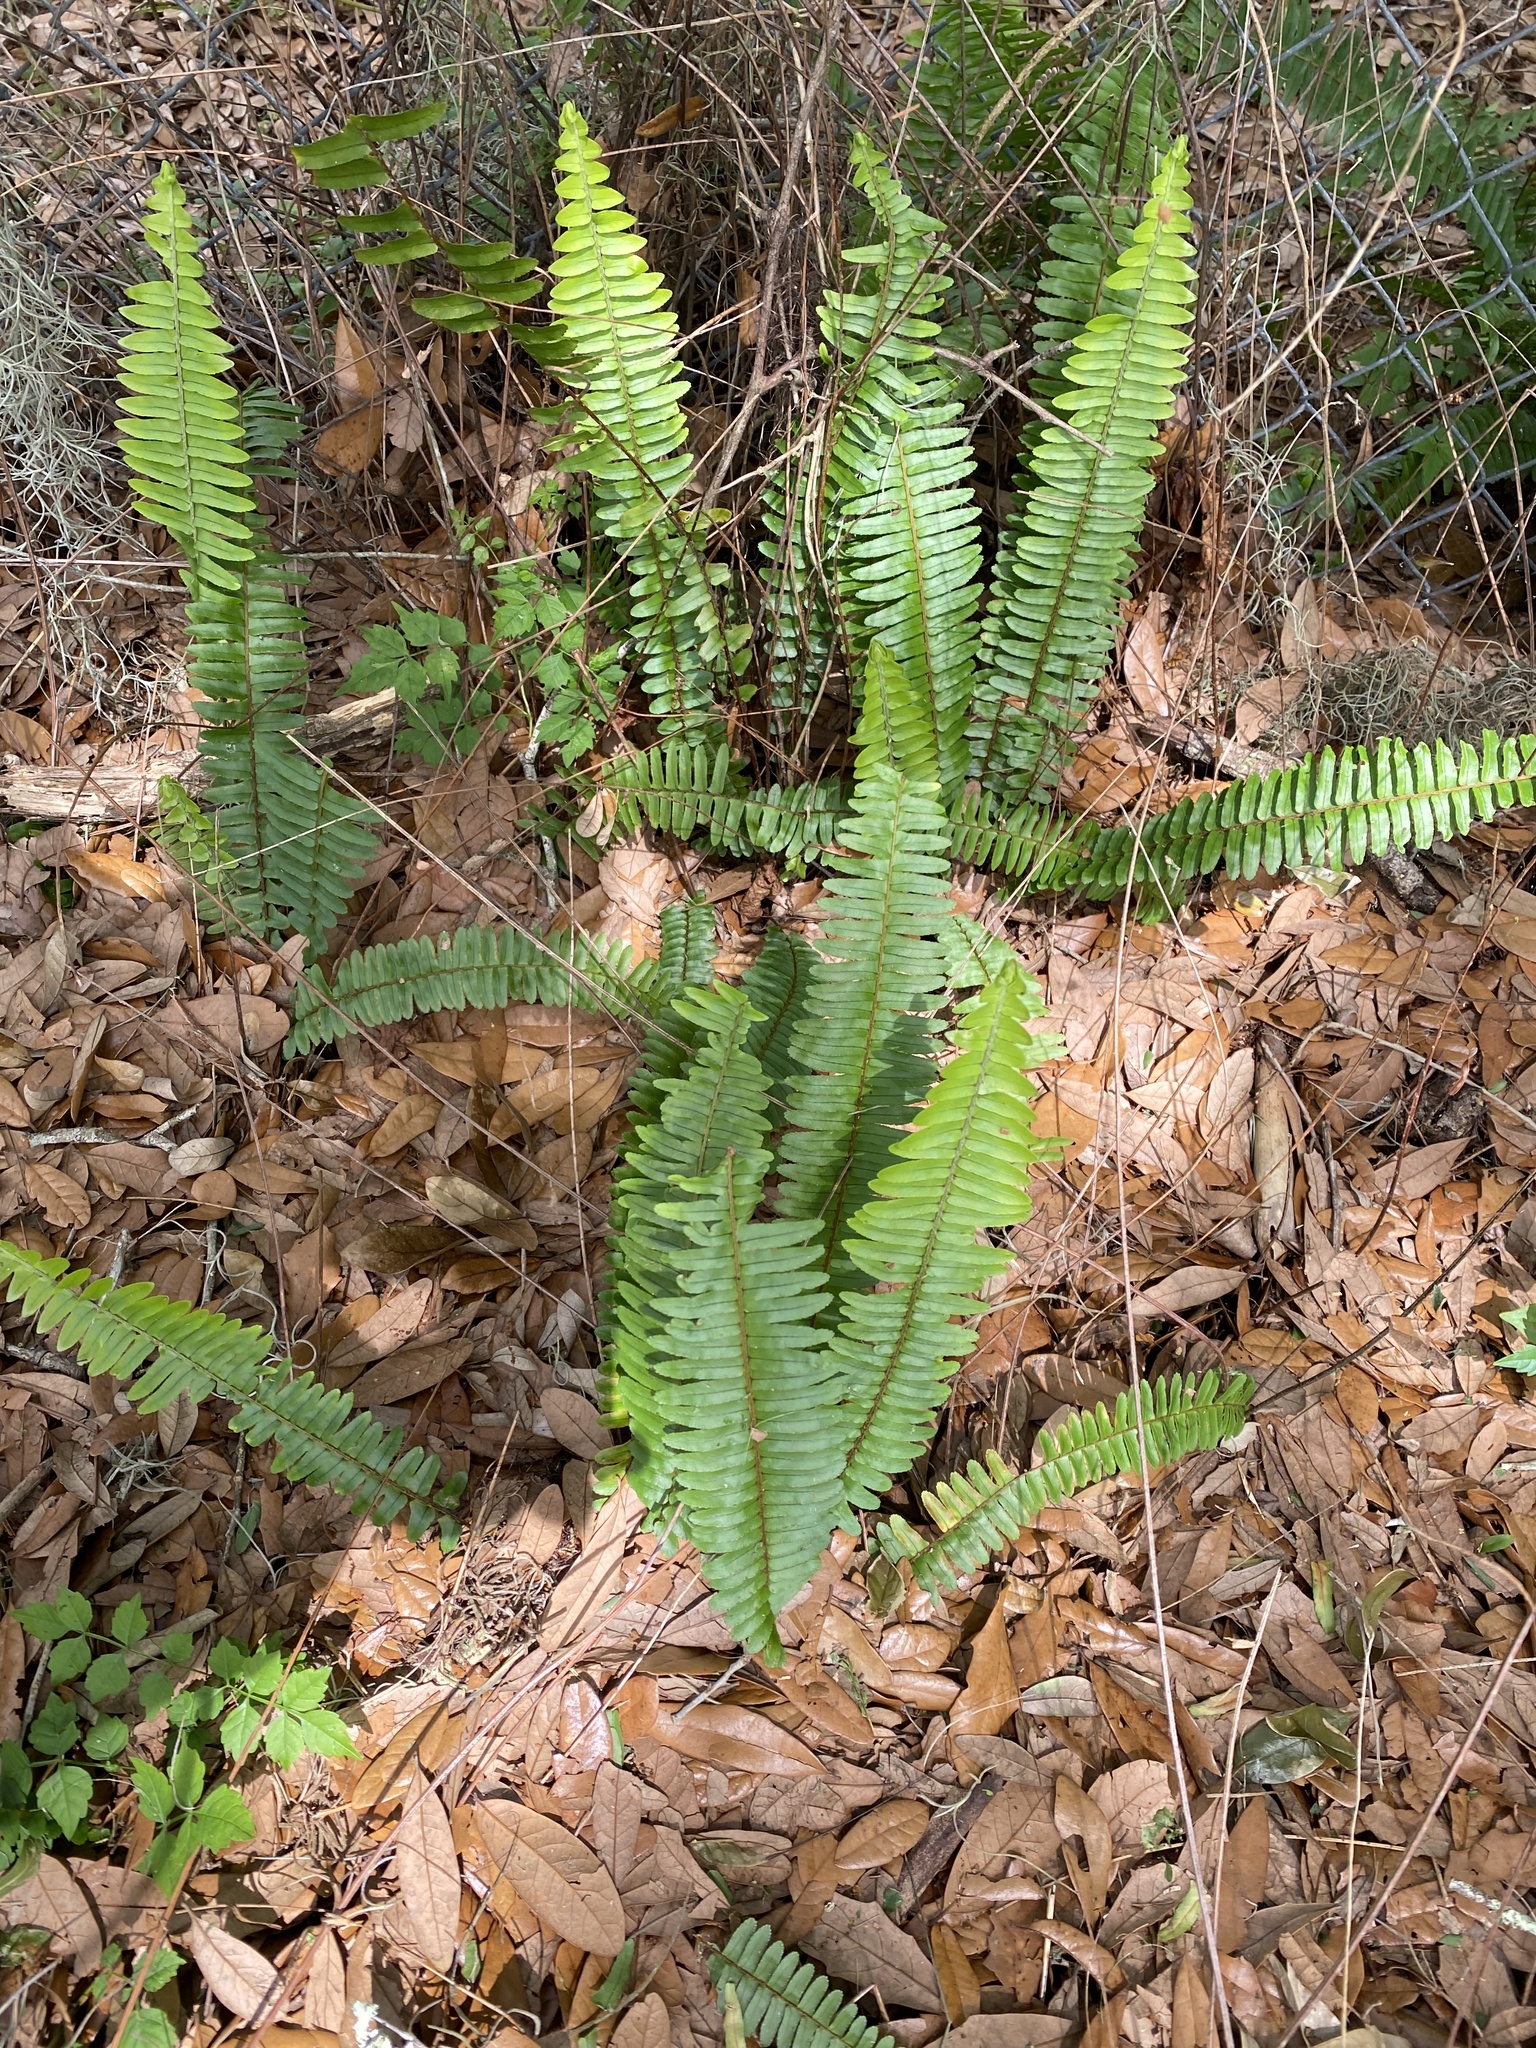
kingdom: Plantae
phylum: Tracheophyta
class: Polypodiopsida
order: Polypodiales
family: Nephrolepidaceae
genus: Nephrolepis
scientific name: Nephrolepis cordifolia
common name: Narrow swordfern
